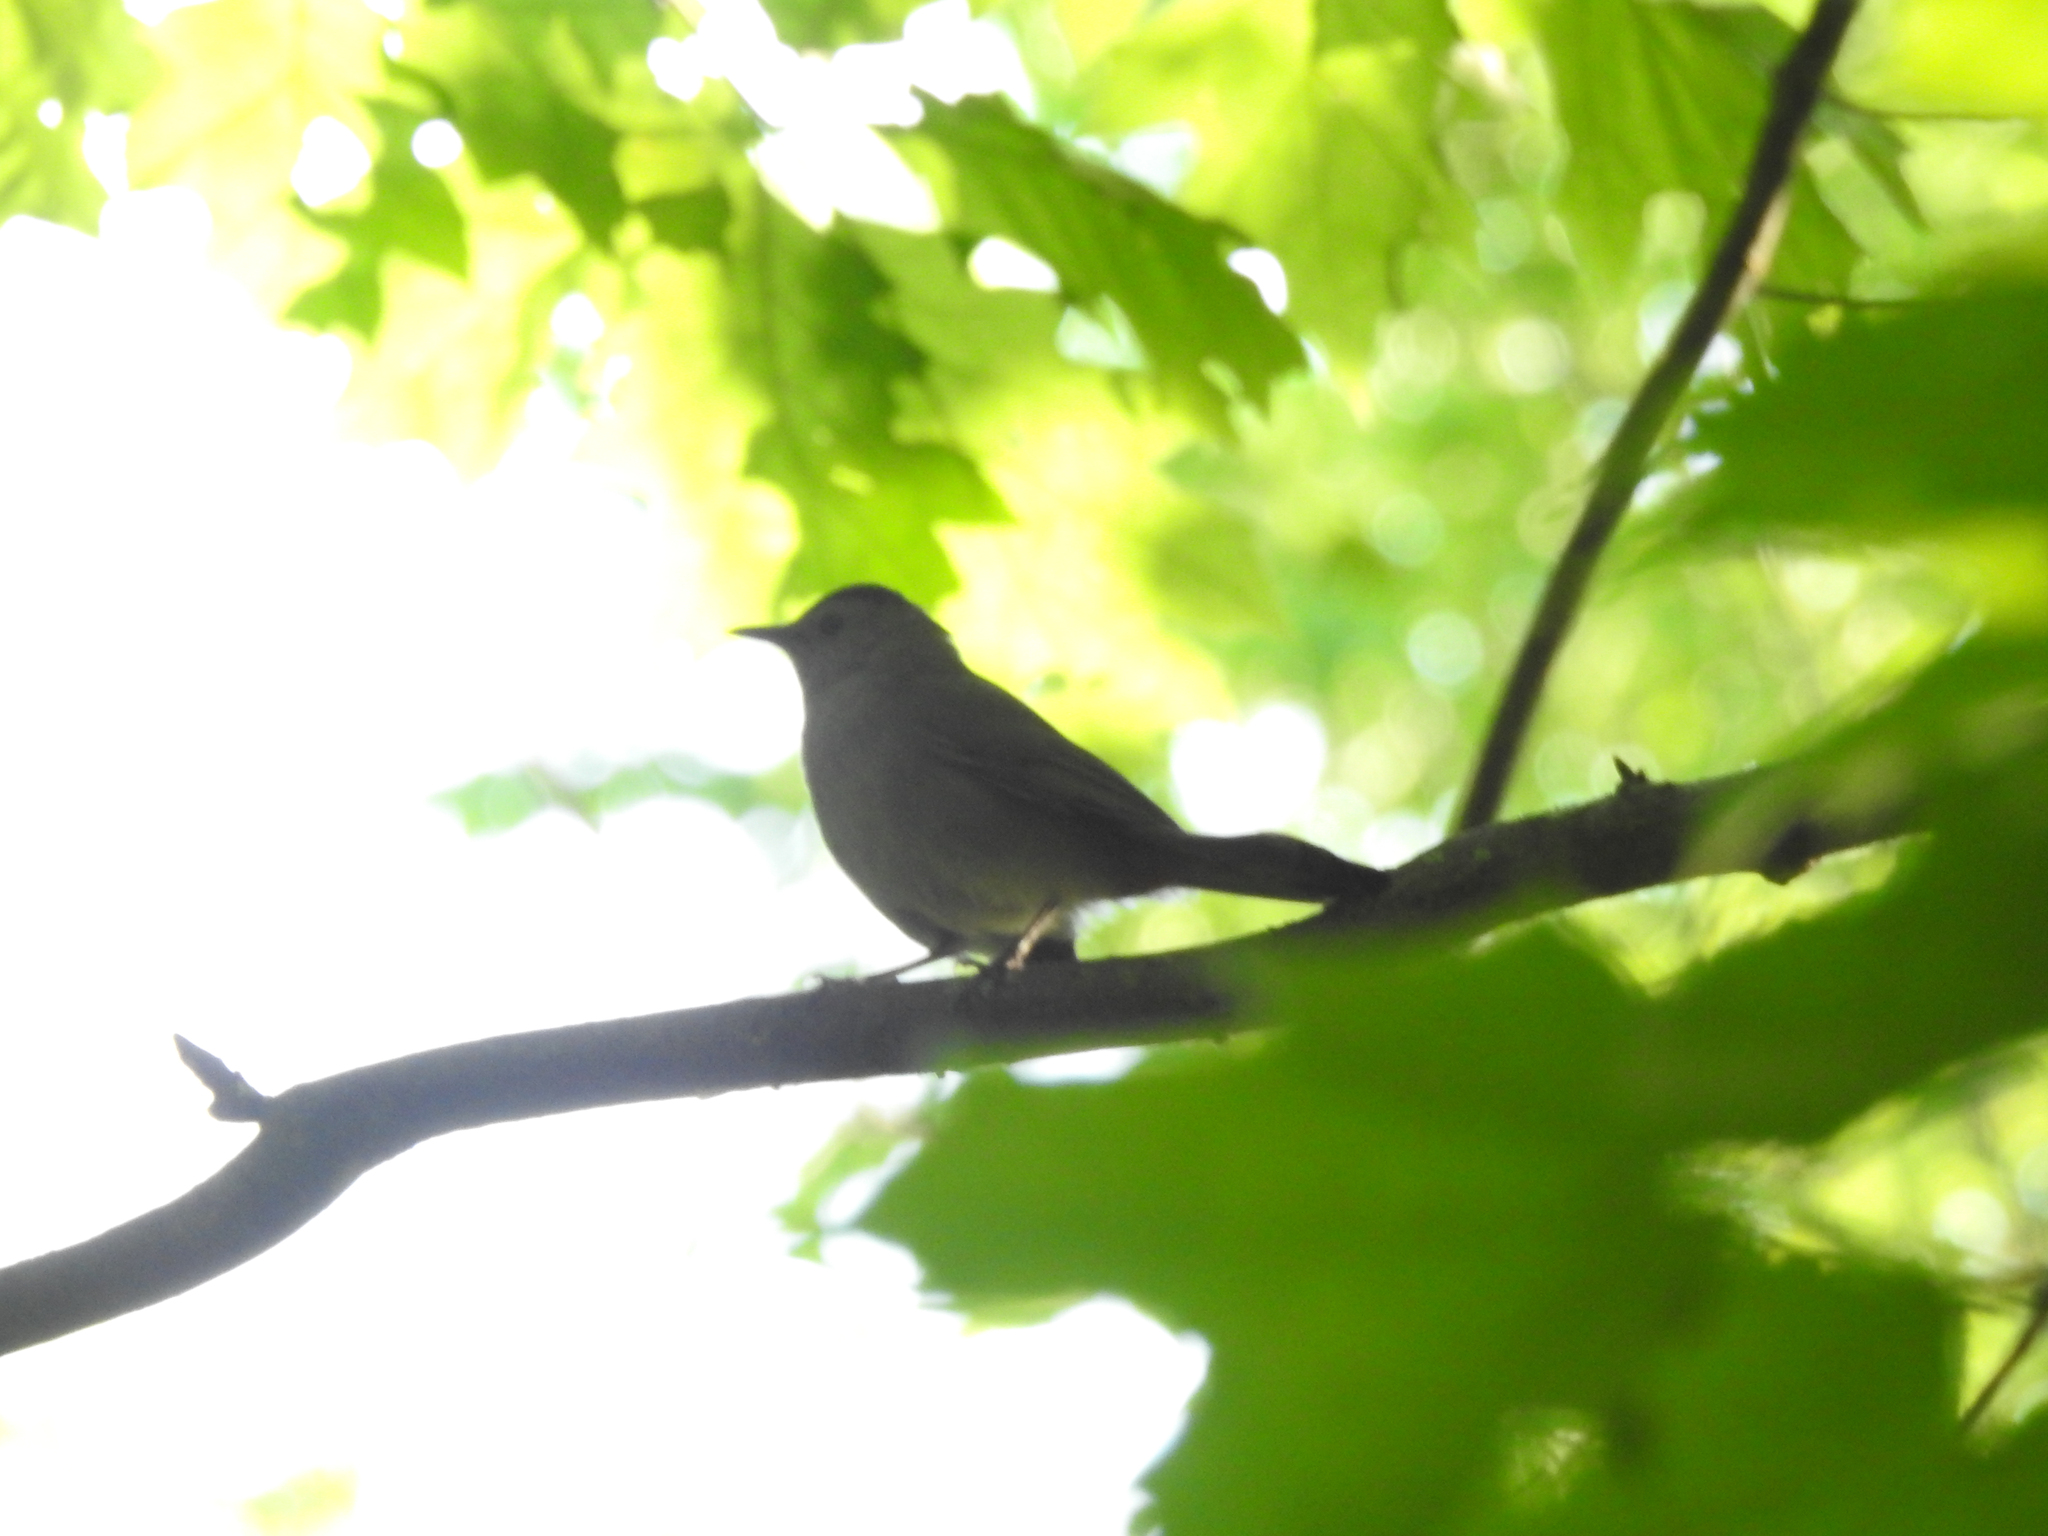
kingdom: Animalia
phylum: Chordata
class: Aves
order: Passeriformes
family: Mimidae
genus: Dumetella
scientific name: Dumetella carolinensis
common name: Gray catbird
